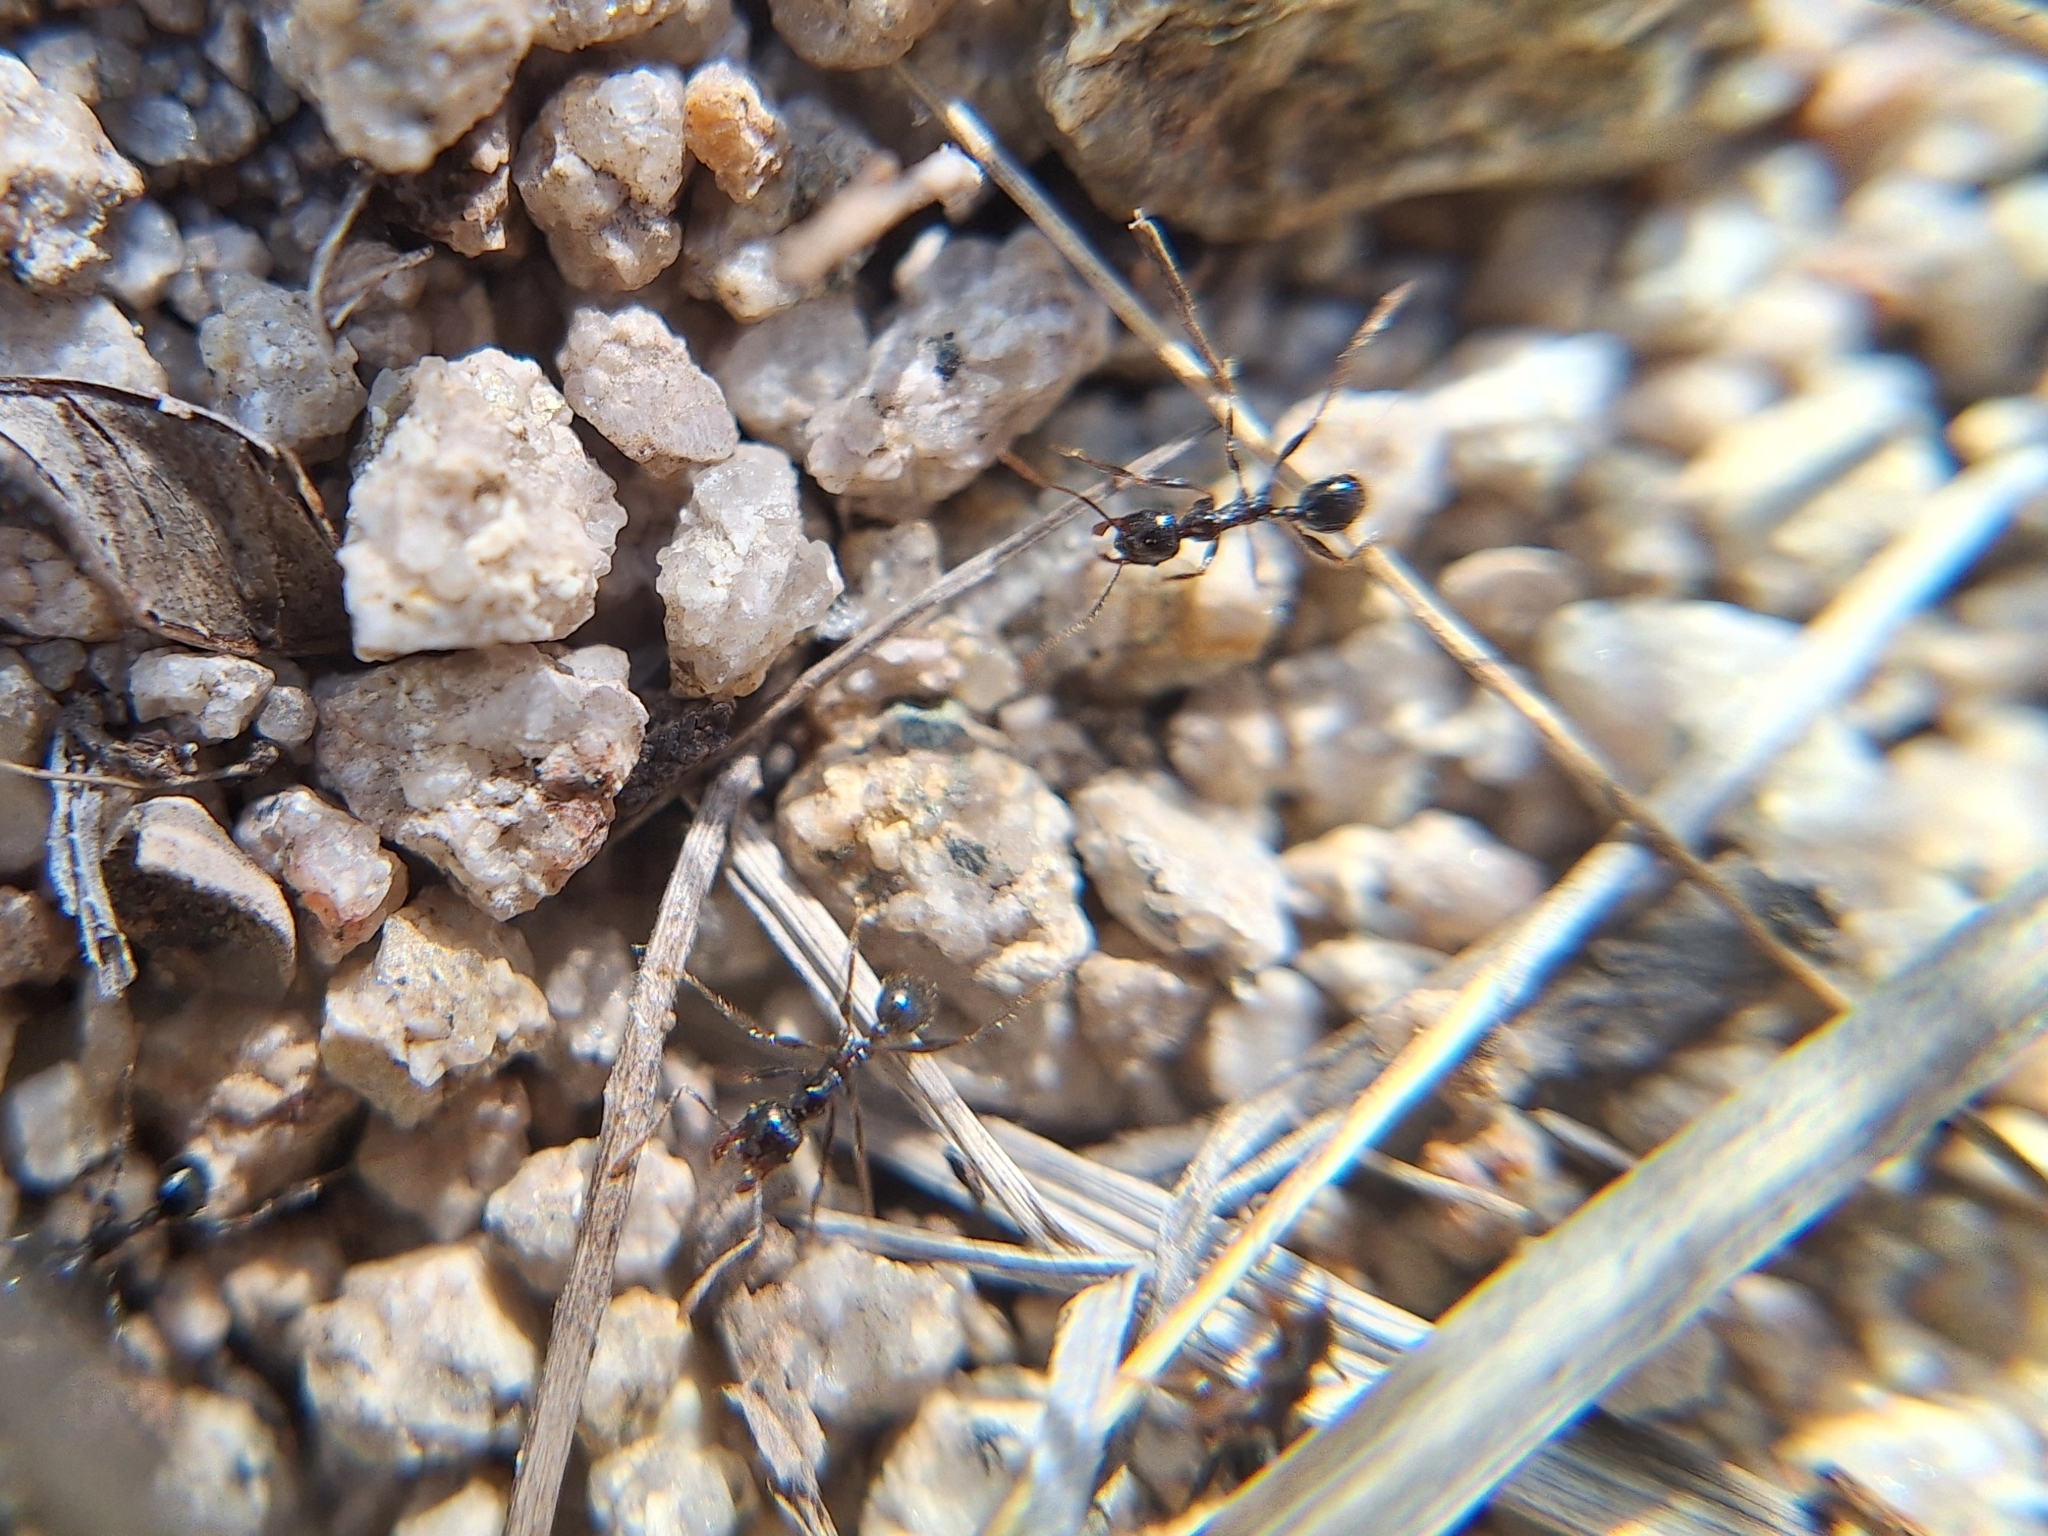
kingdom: Animalia
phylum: Arthropoda
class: Insecta
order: Hymenoptera
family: Formicidae
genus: Pheidole
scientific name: Pheidole rhea
